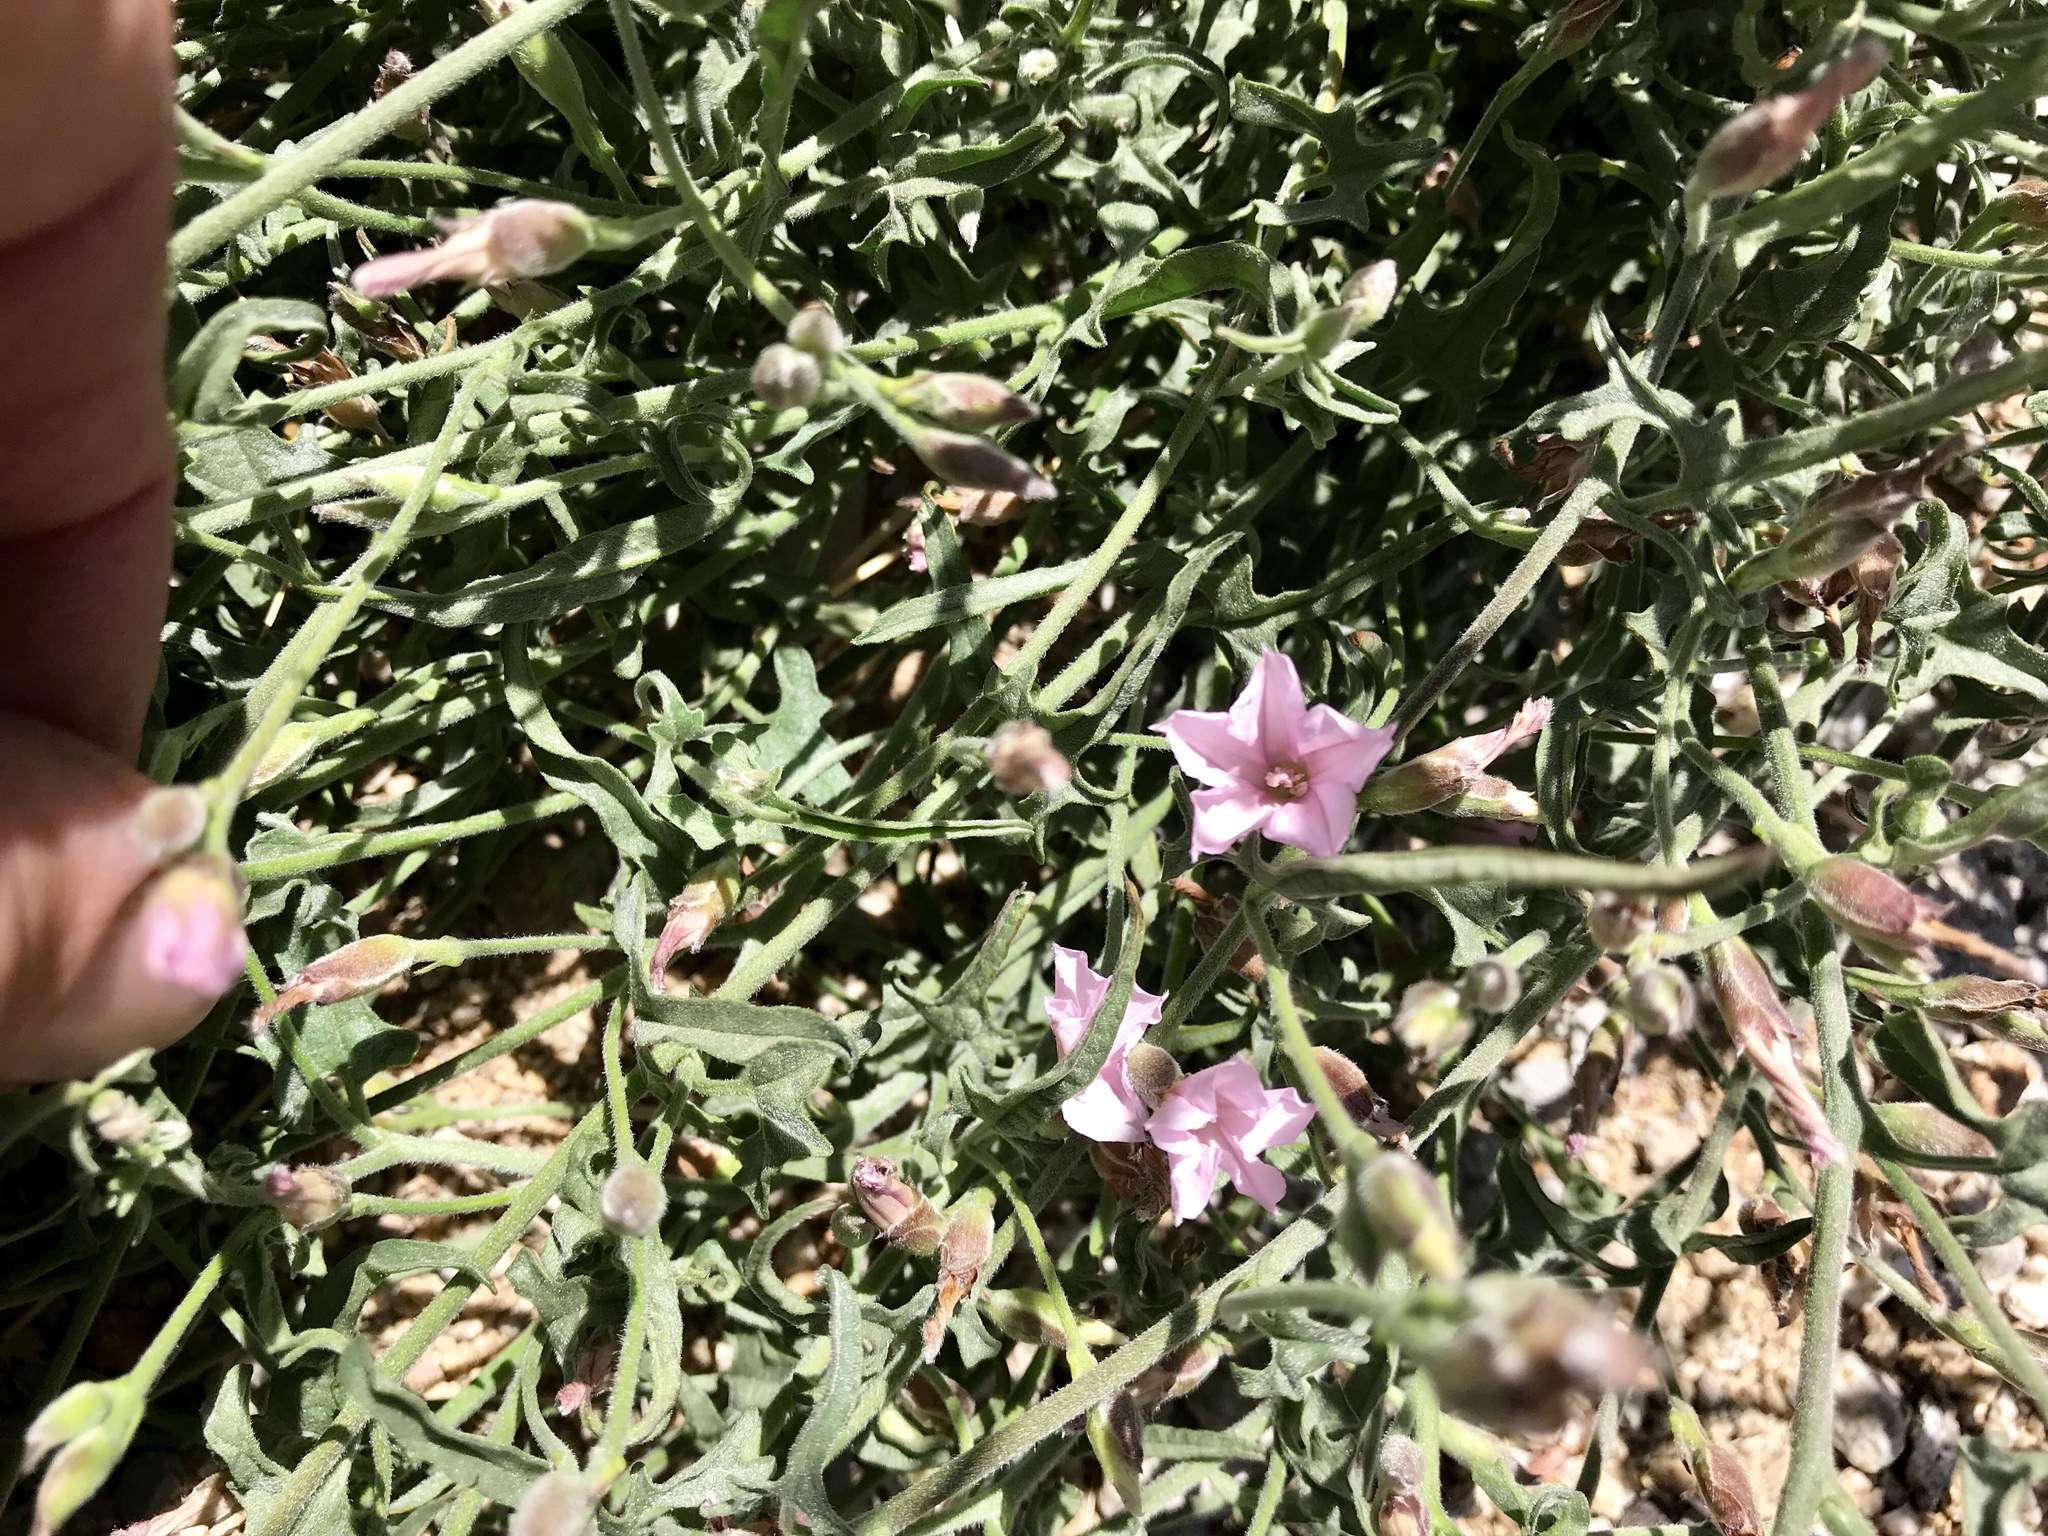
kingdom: Plantae
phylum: Tracheophyta
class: Magnoliopsida
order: Solanales
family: Convolvulaceae
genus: Convolvulus
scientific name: Convolvulus equitans
